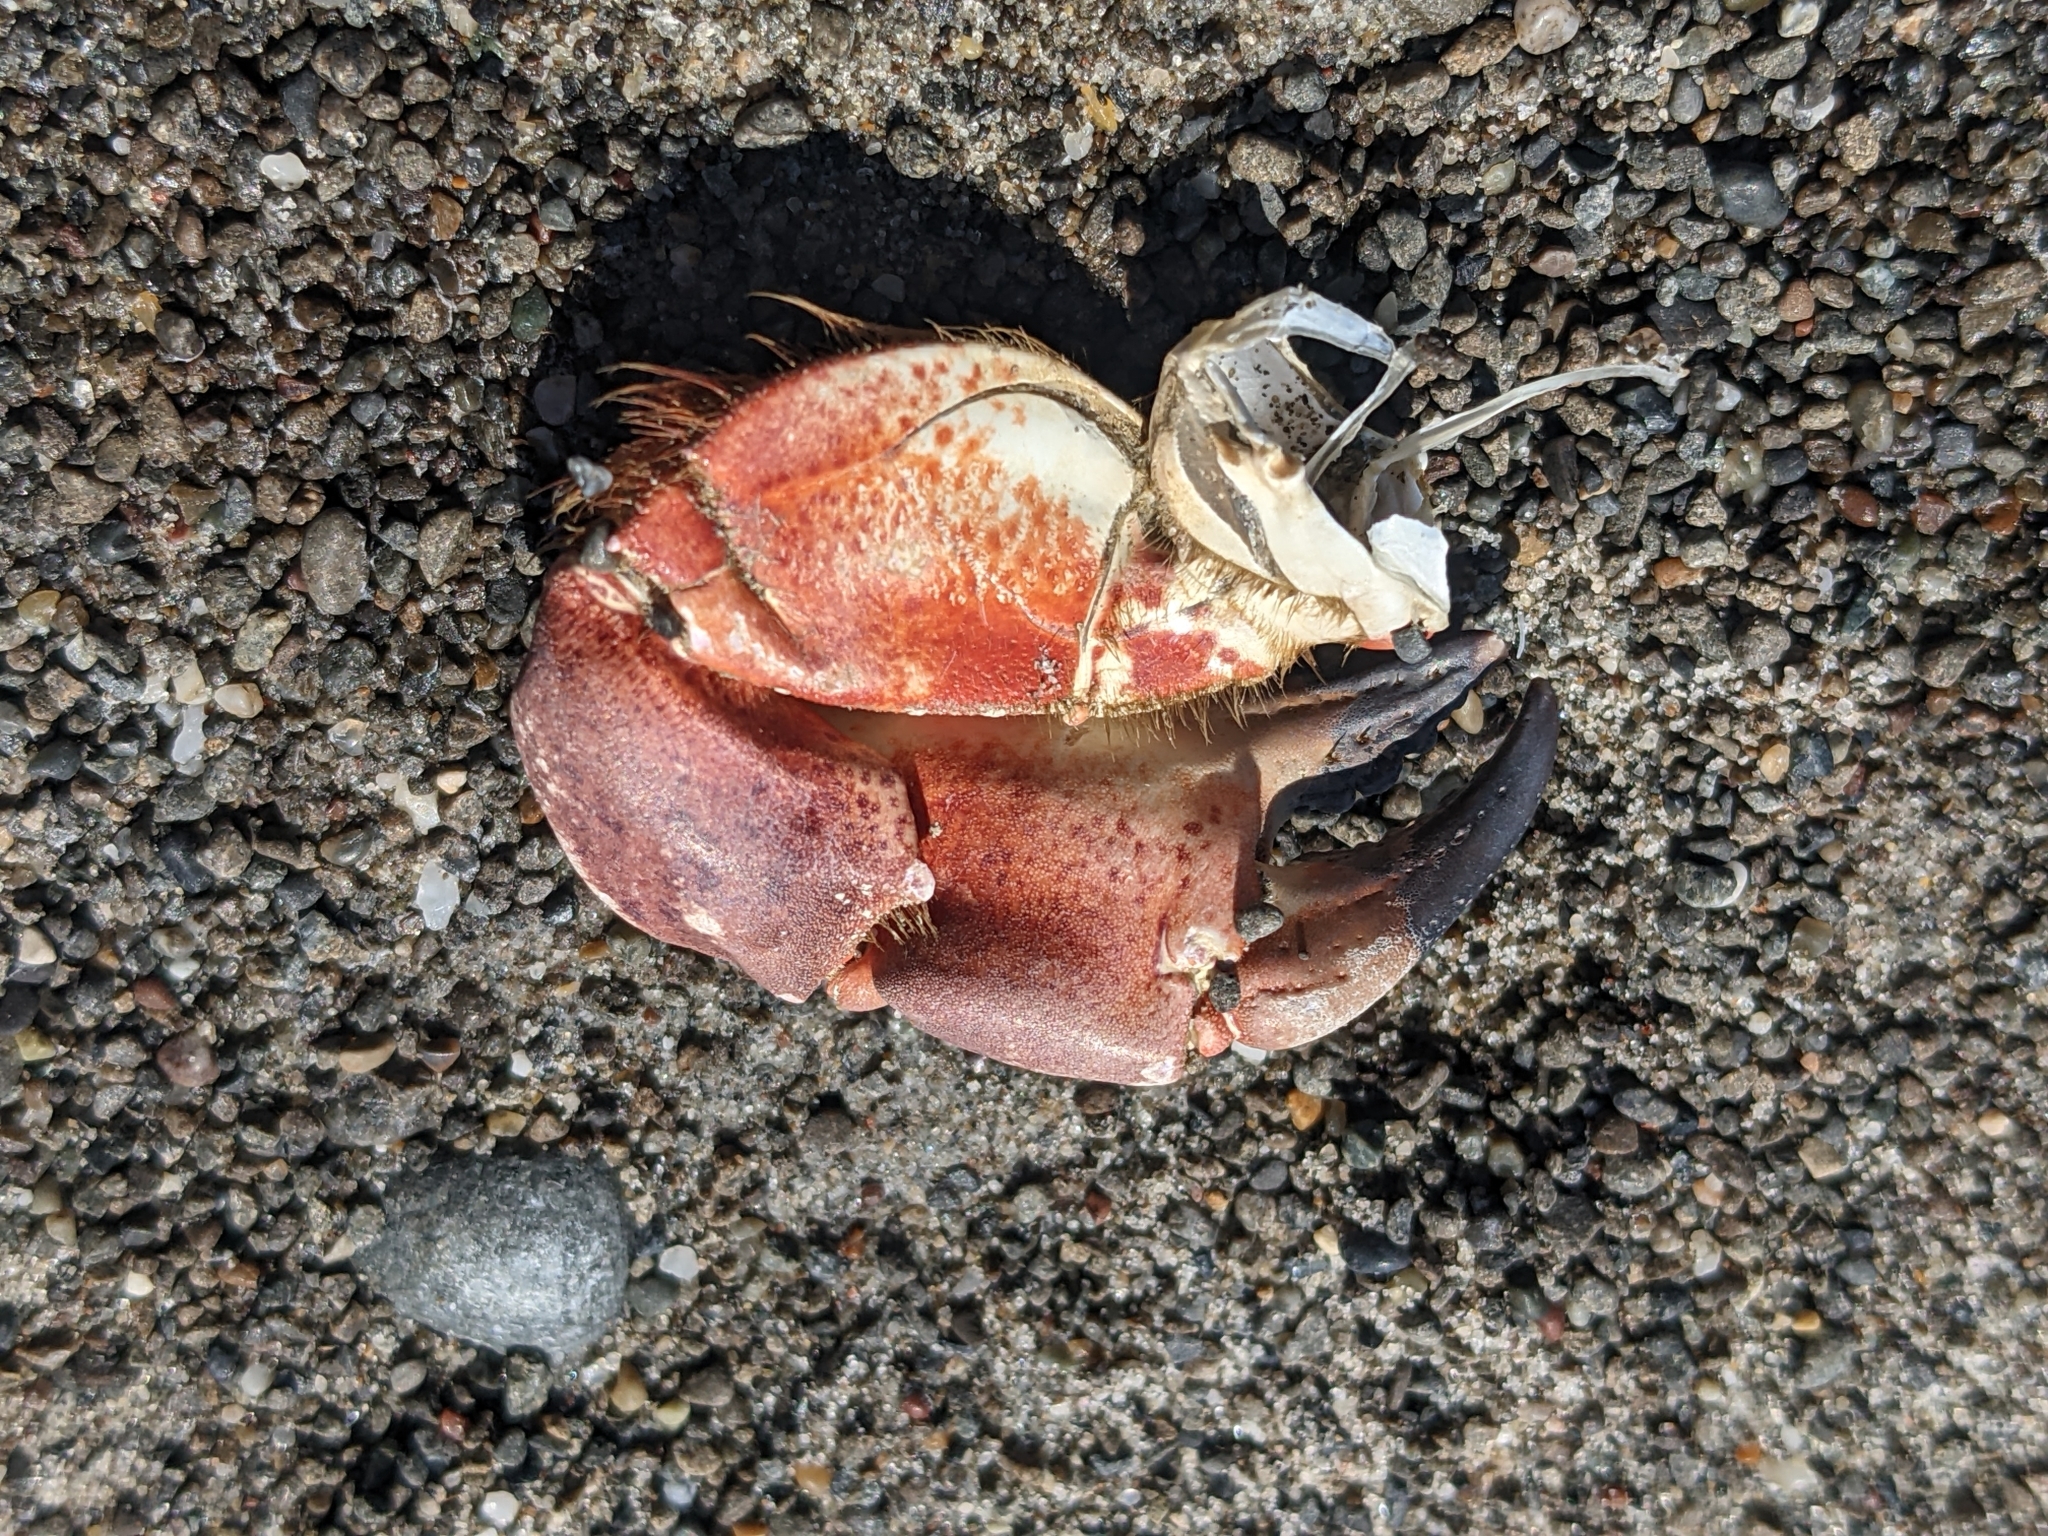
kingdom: Animalia
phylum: Arthropoda
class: Malacostraca
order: Decapoda
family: Cancridae
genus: Romaleon
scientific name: Romaleon antennarium
